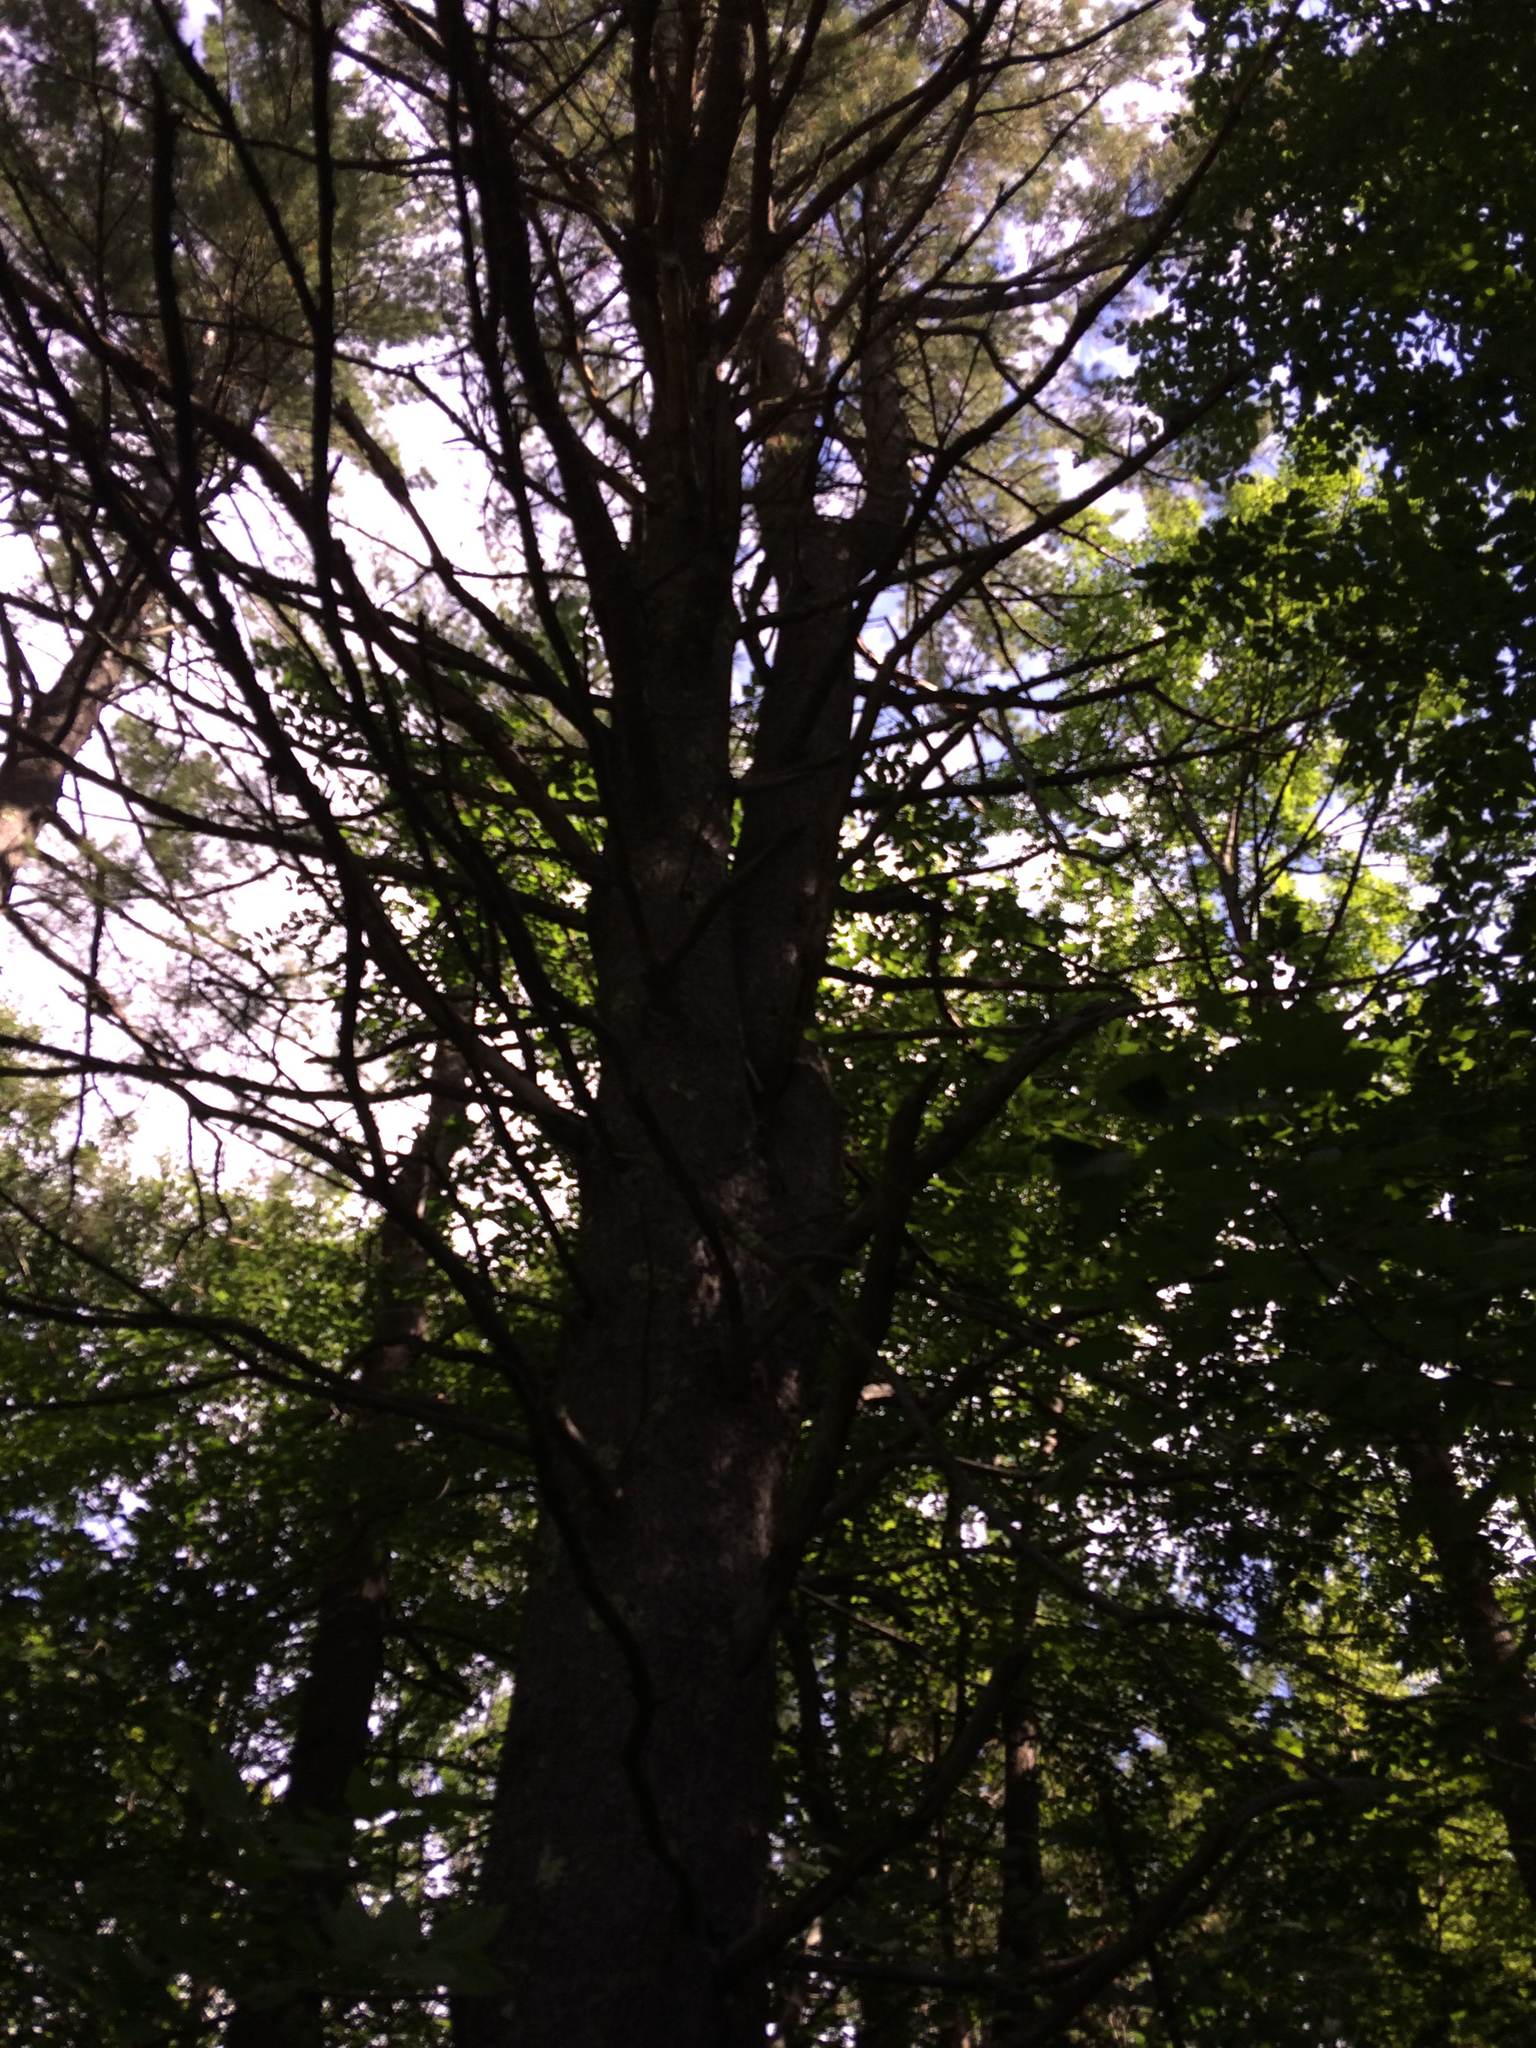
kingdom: Plantae
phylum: Tracheophyta
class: Pinopsida
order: Pinales
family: Pinaceae
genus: Pinus
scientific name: Pinus strobus
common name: Weymouth pine
